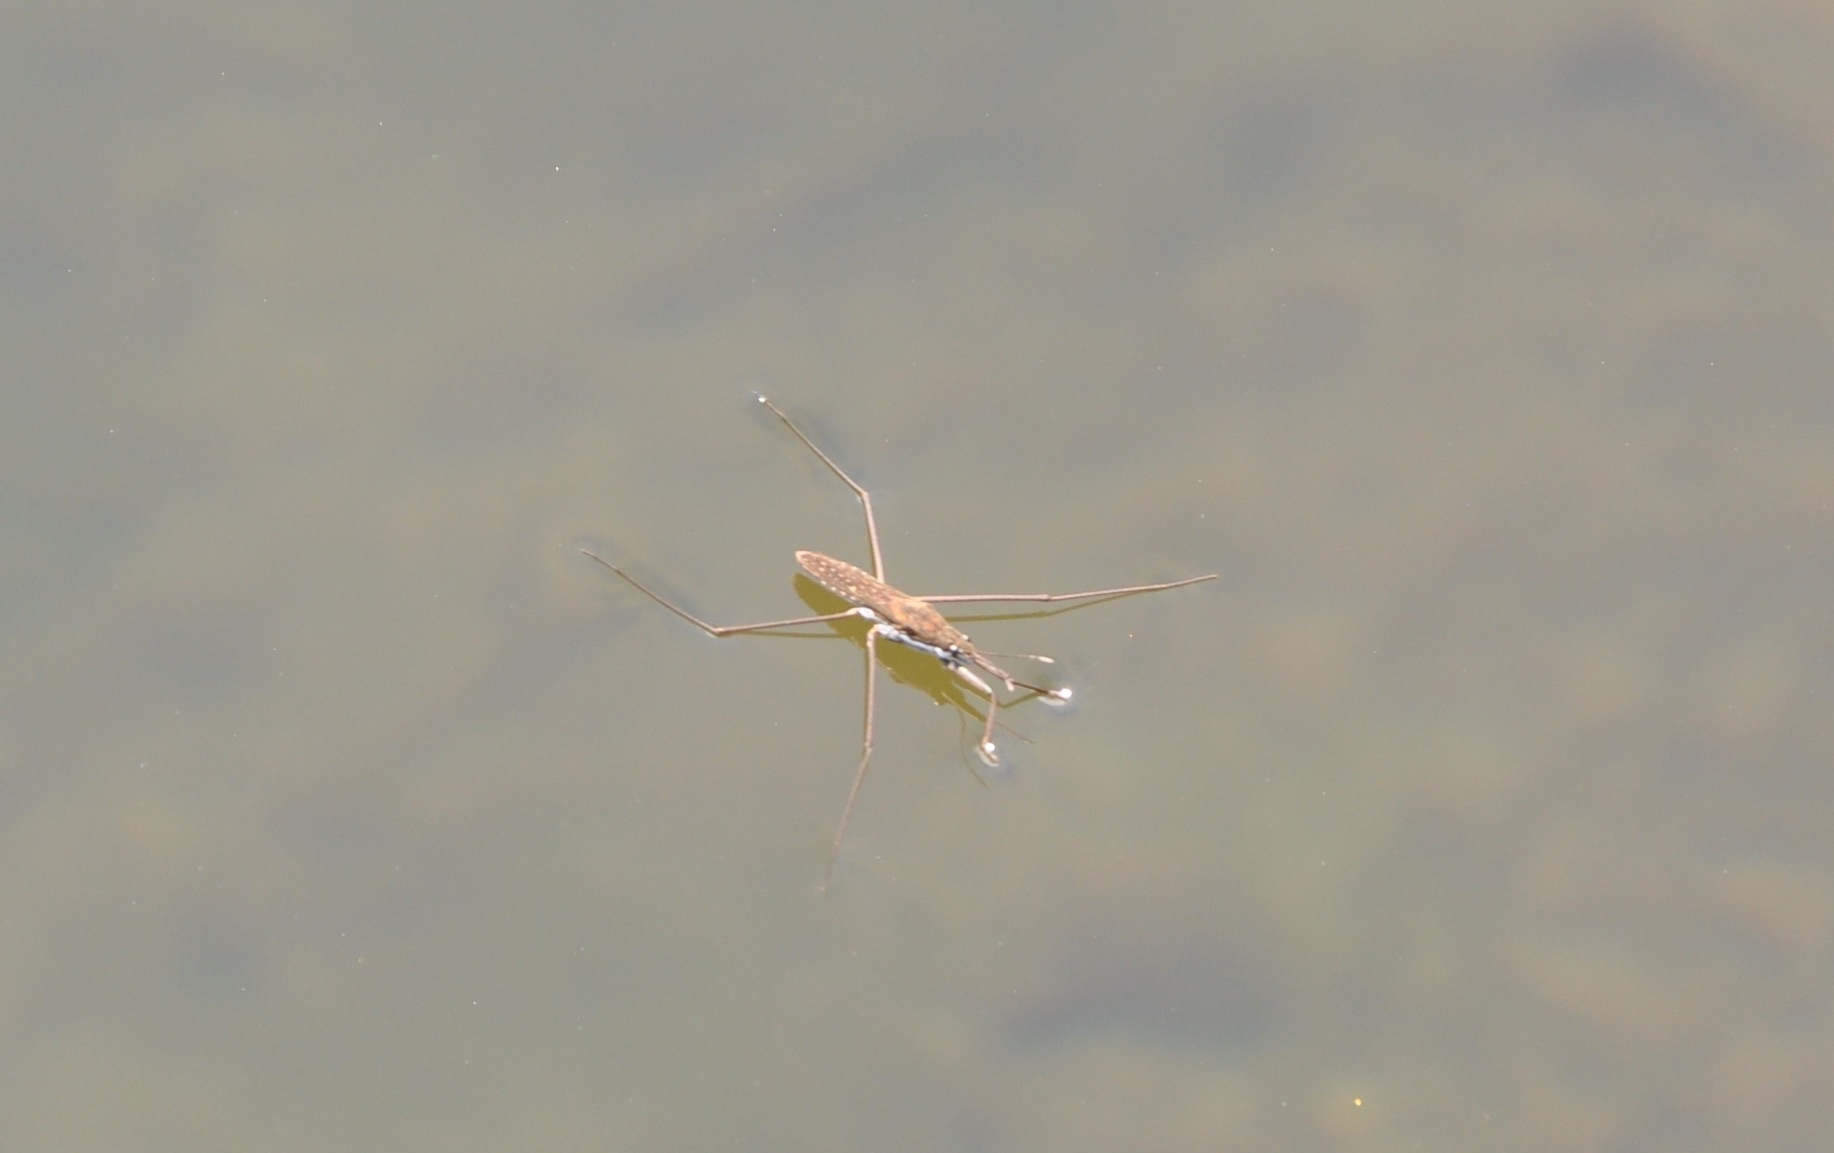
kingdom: Animalia
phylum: Arthropoda
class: Insecta
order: Hemiptera
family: Gerridae
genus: Aquarius
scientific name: Aquarius remigis
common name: Common water strider
